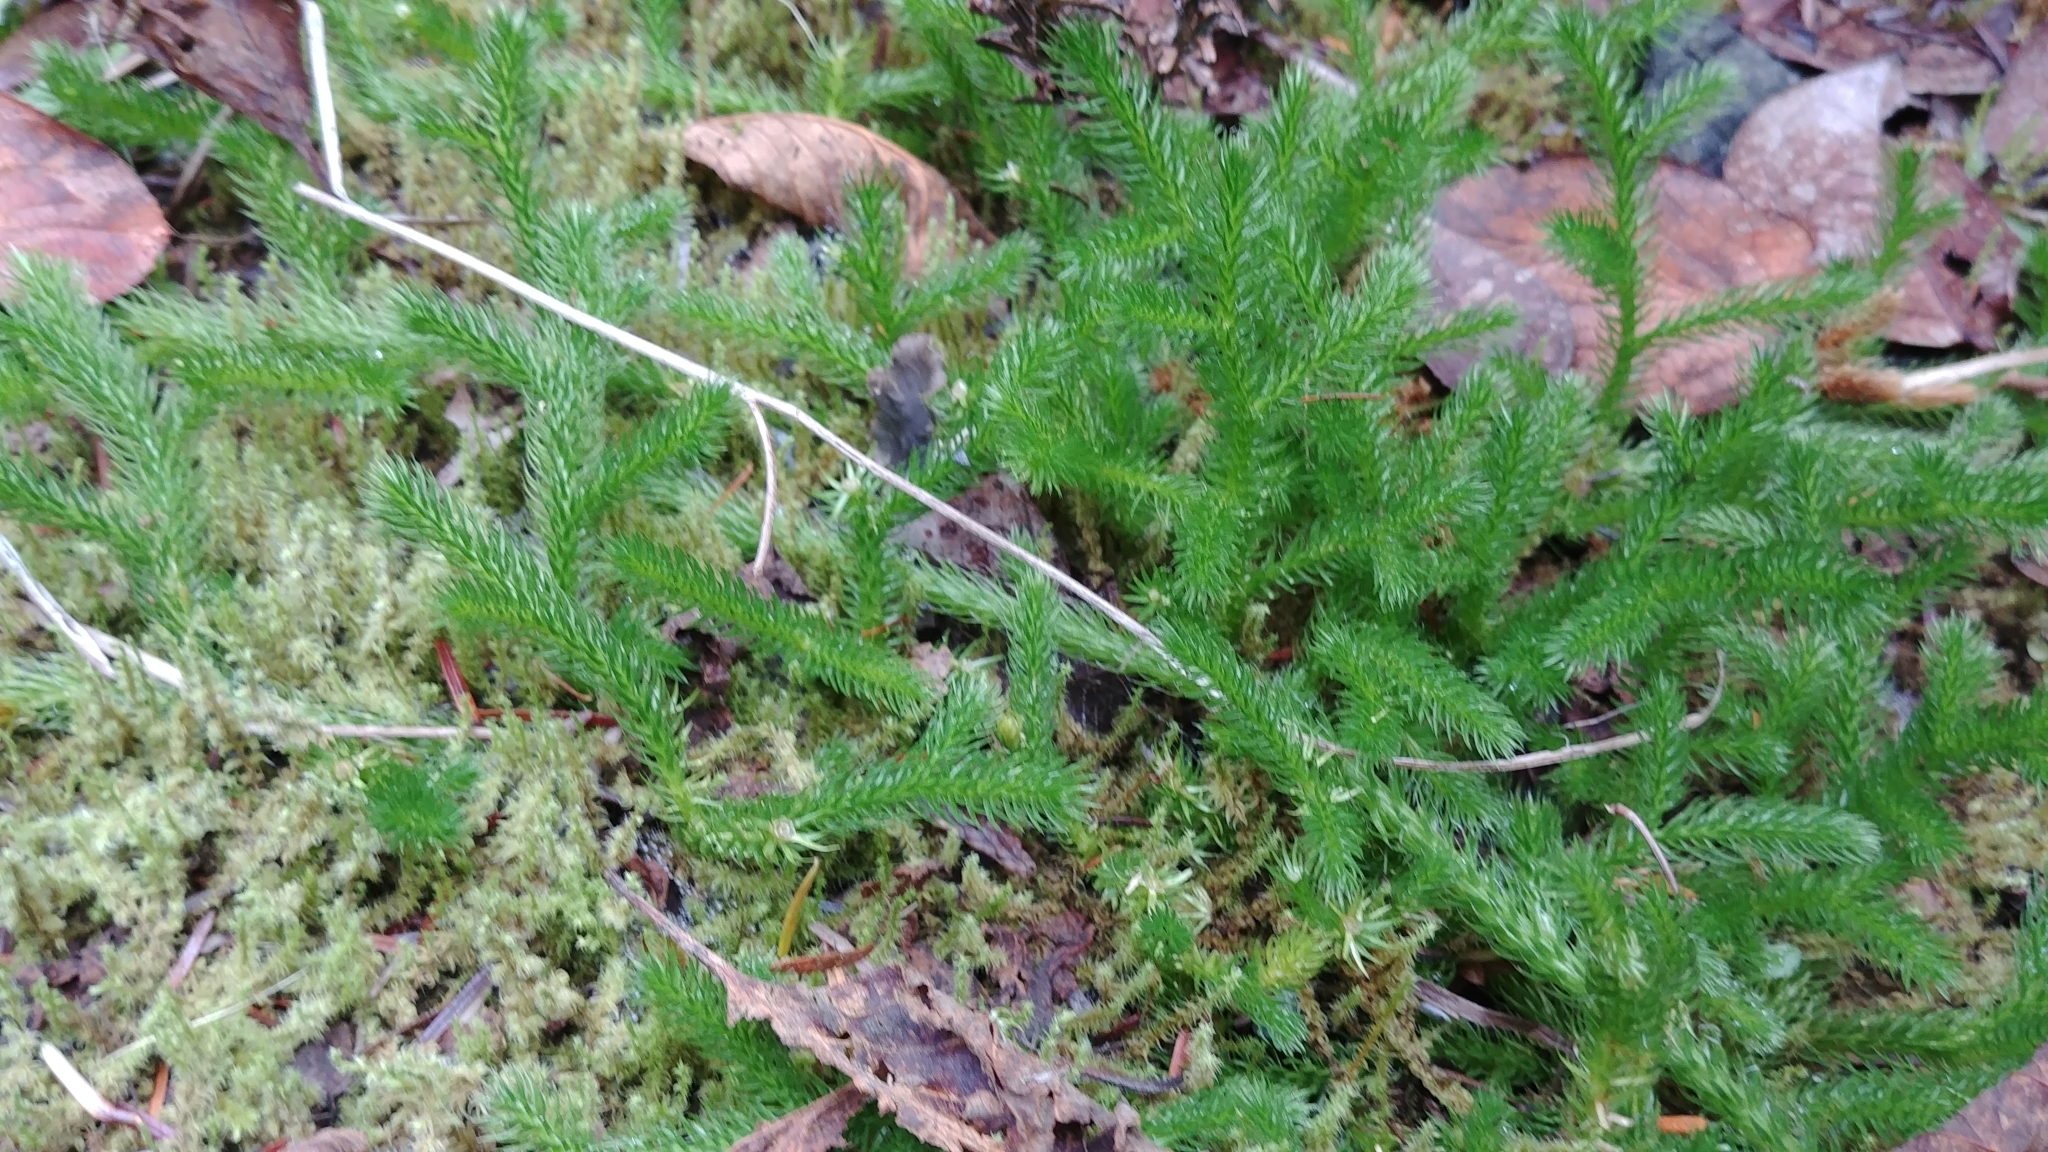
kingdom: Plantae
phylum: Tracheophyta
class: Lycopodiopsida
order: Lycopodiales
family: Lycopodiaceae
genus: Lycopodium
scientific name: Lycopodium clavatum
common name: Stag's-horn clubmoss
